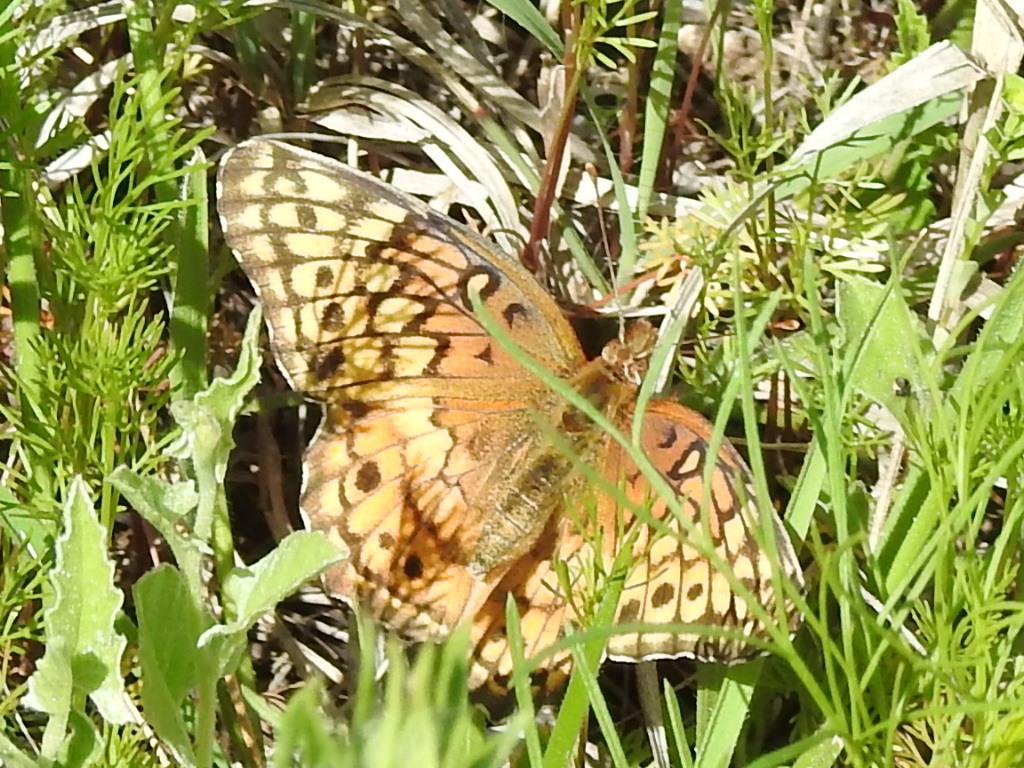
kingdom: Animalia
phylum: Arthropoda
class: Insecta
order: Lepidoptera
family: Nymphalidae
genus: Euptoieta
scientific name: Euptoieta claudia
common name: Variegated fritillary
